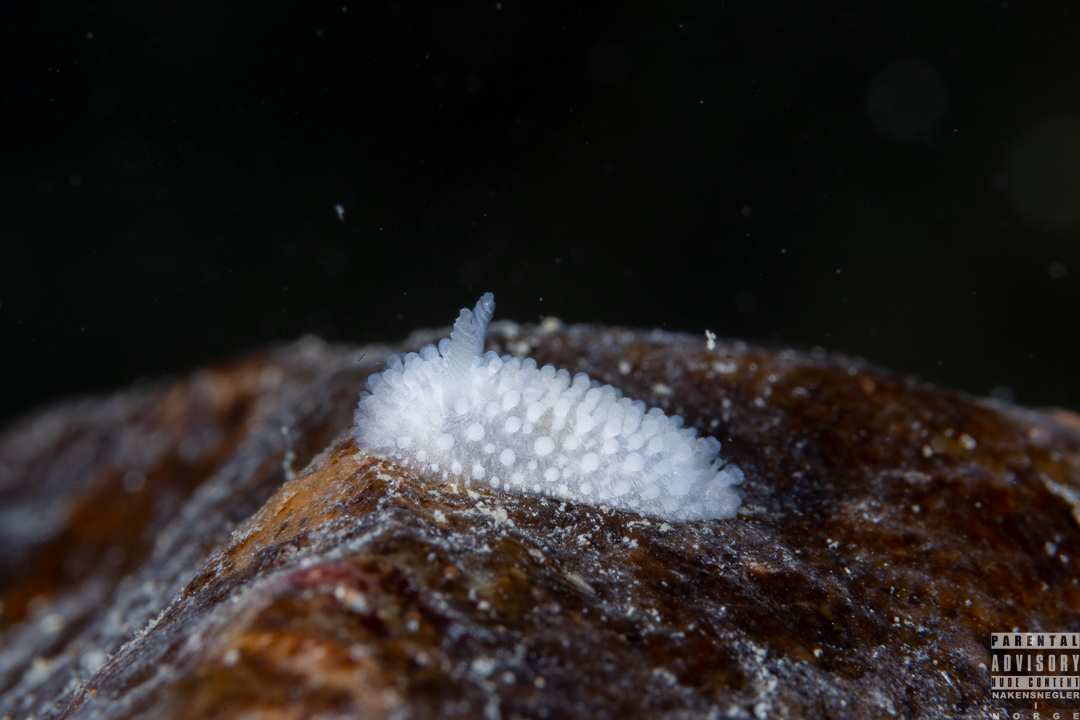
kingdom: Animalia
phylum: Mollusca
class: Gastropoda
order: Nudibranchia
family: Onchidorididae
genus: Onchidoris
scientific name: Onchidoris muricata
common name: Rough doris
